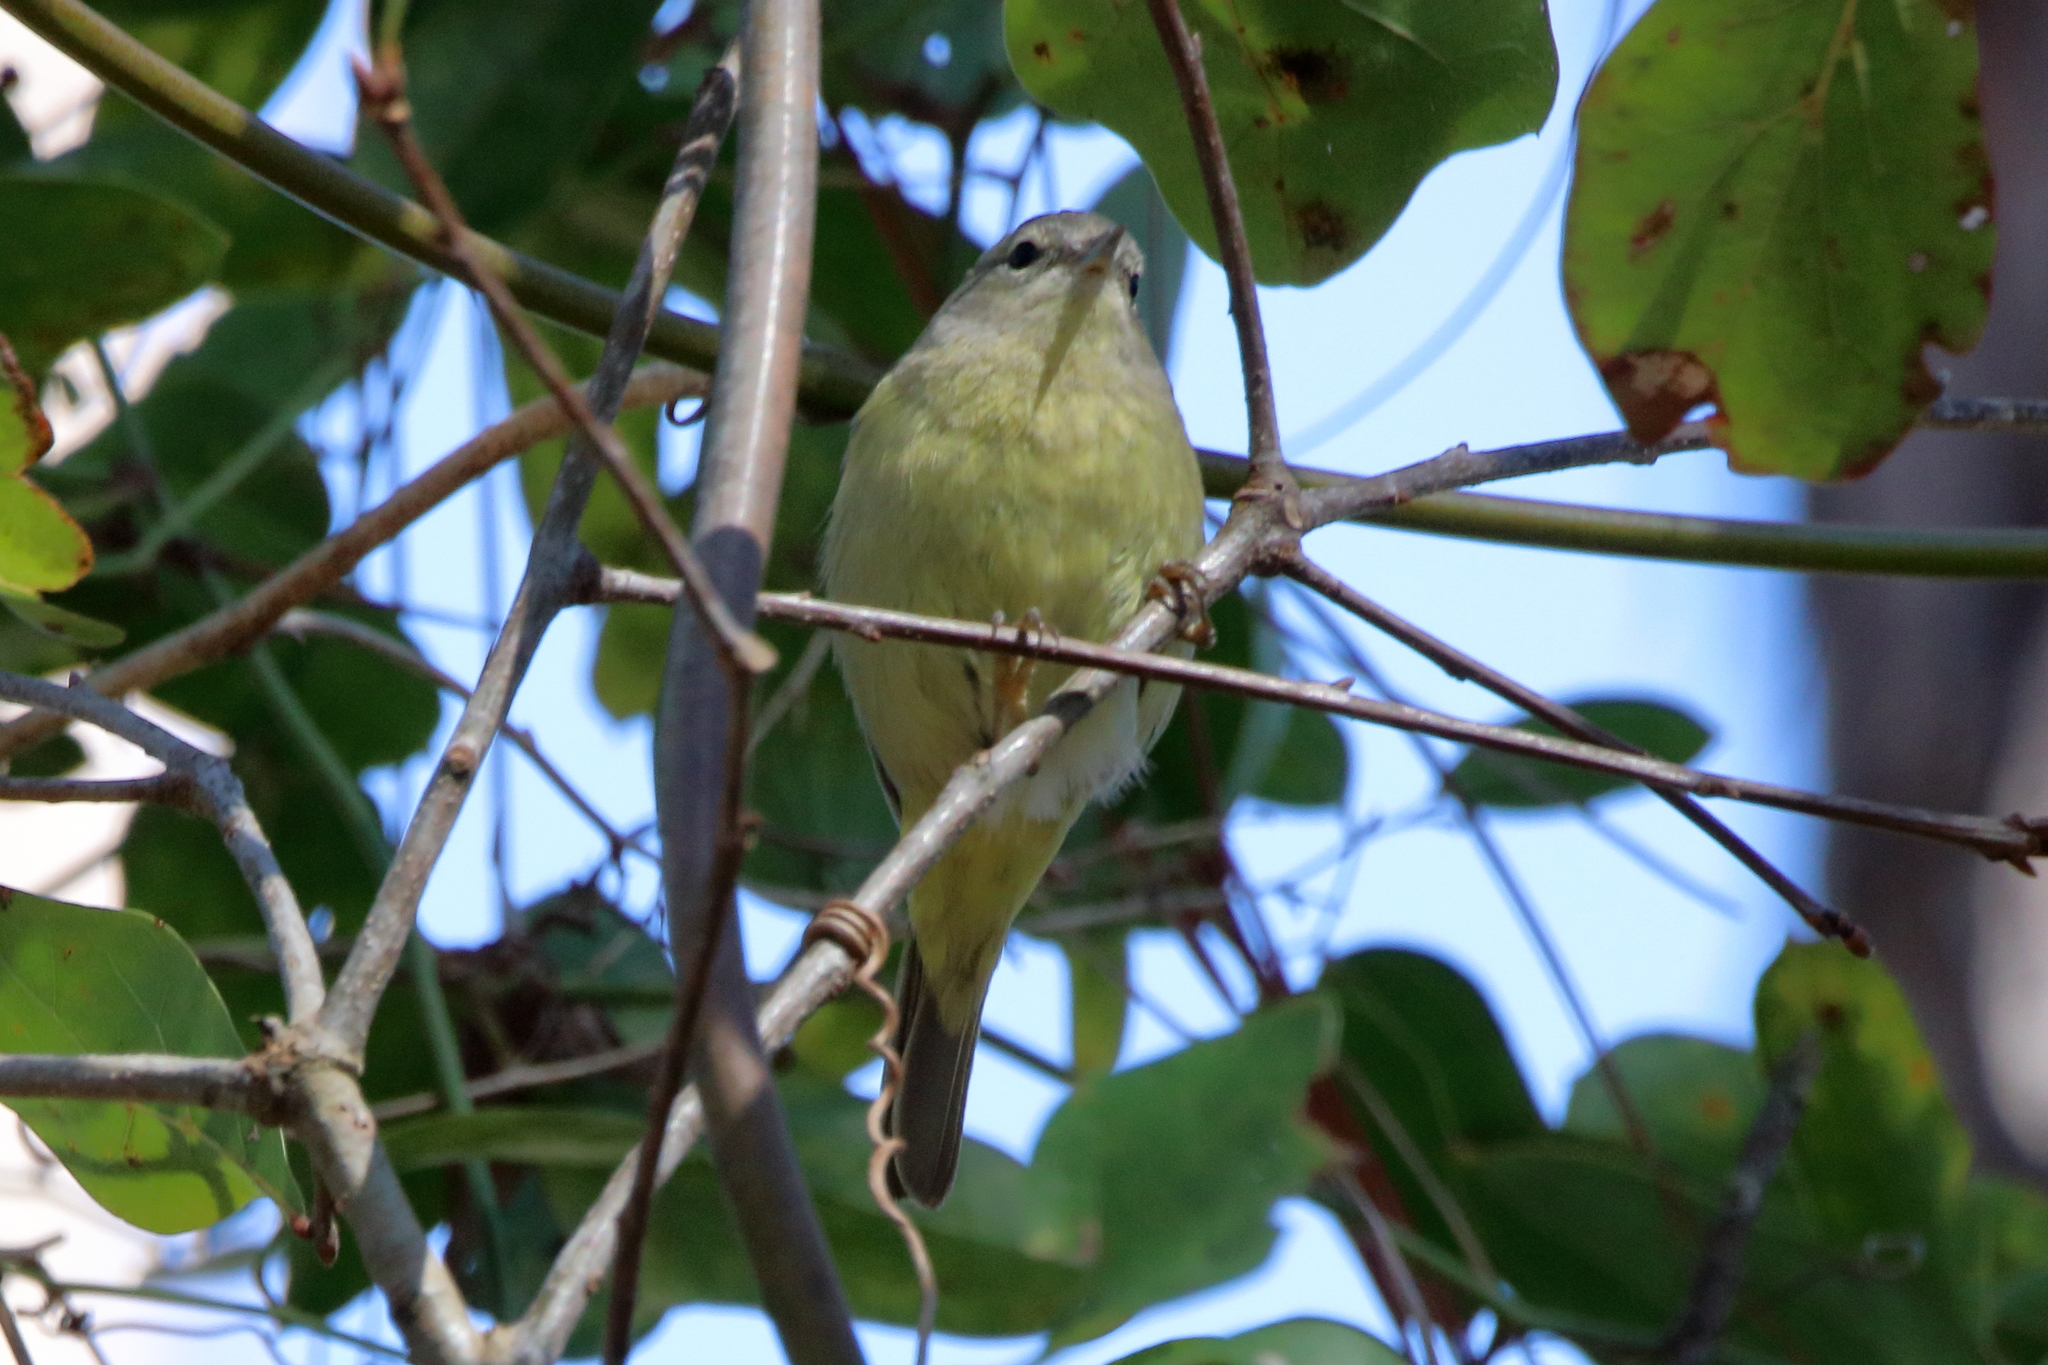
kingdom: Animalia
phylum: Chordata
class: Aves
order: Passeriformes
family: Parulidae
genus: Leiothlypis
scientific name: Leiothlypis celata
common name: Orange-crowned warbler
